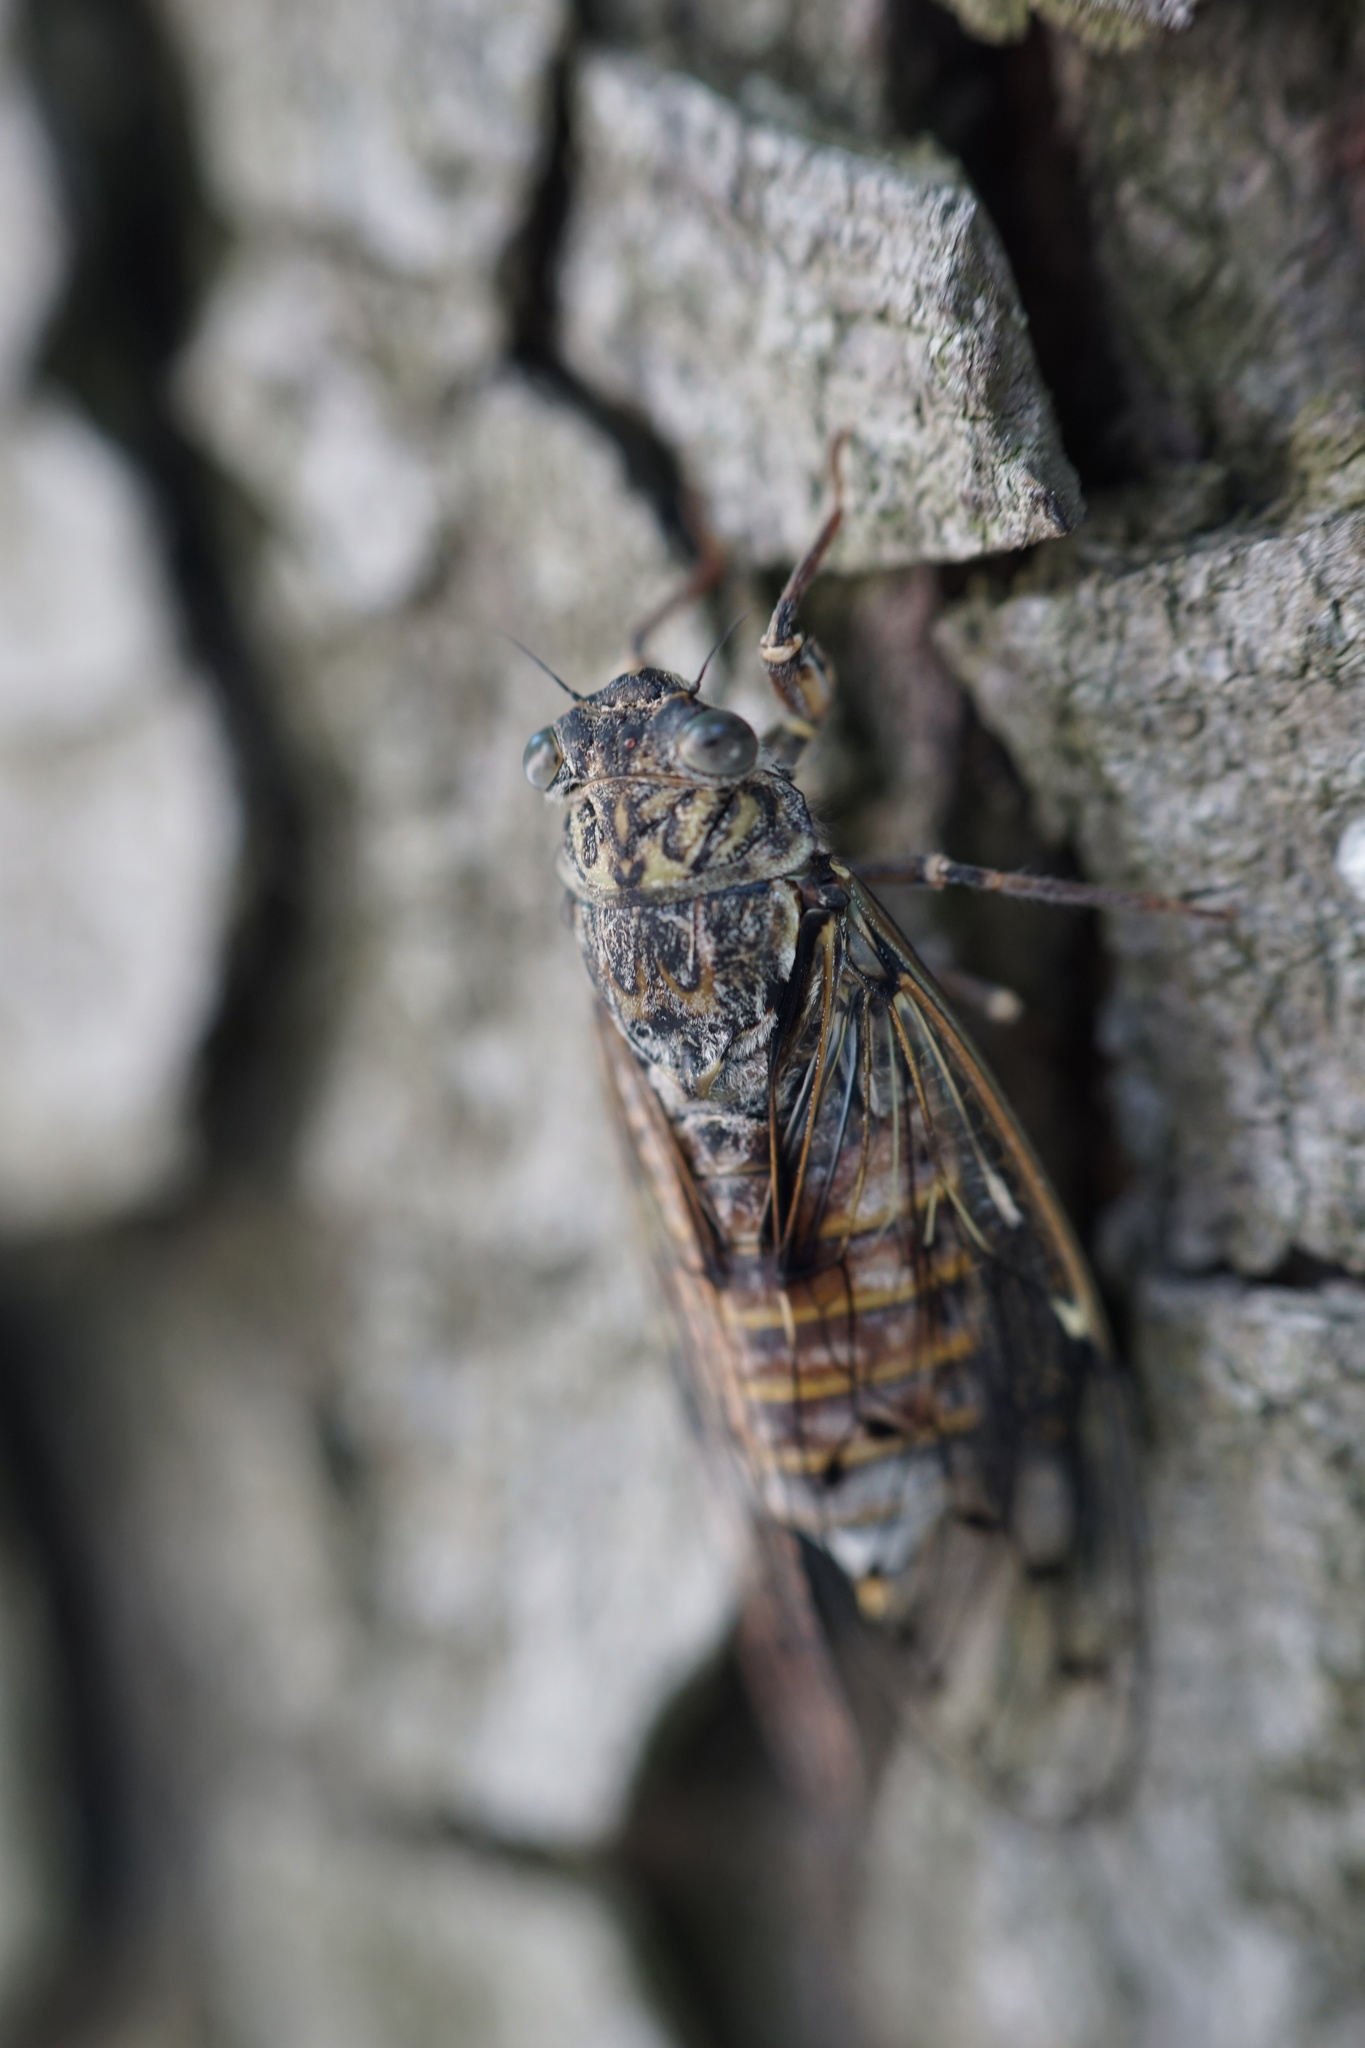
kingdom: Animalia
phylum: Arthropoda
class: Insecta
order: Hemiptera
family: Cicadidae
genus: Cicada
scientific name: Cicada orni
